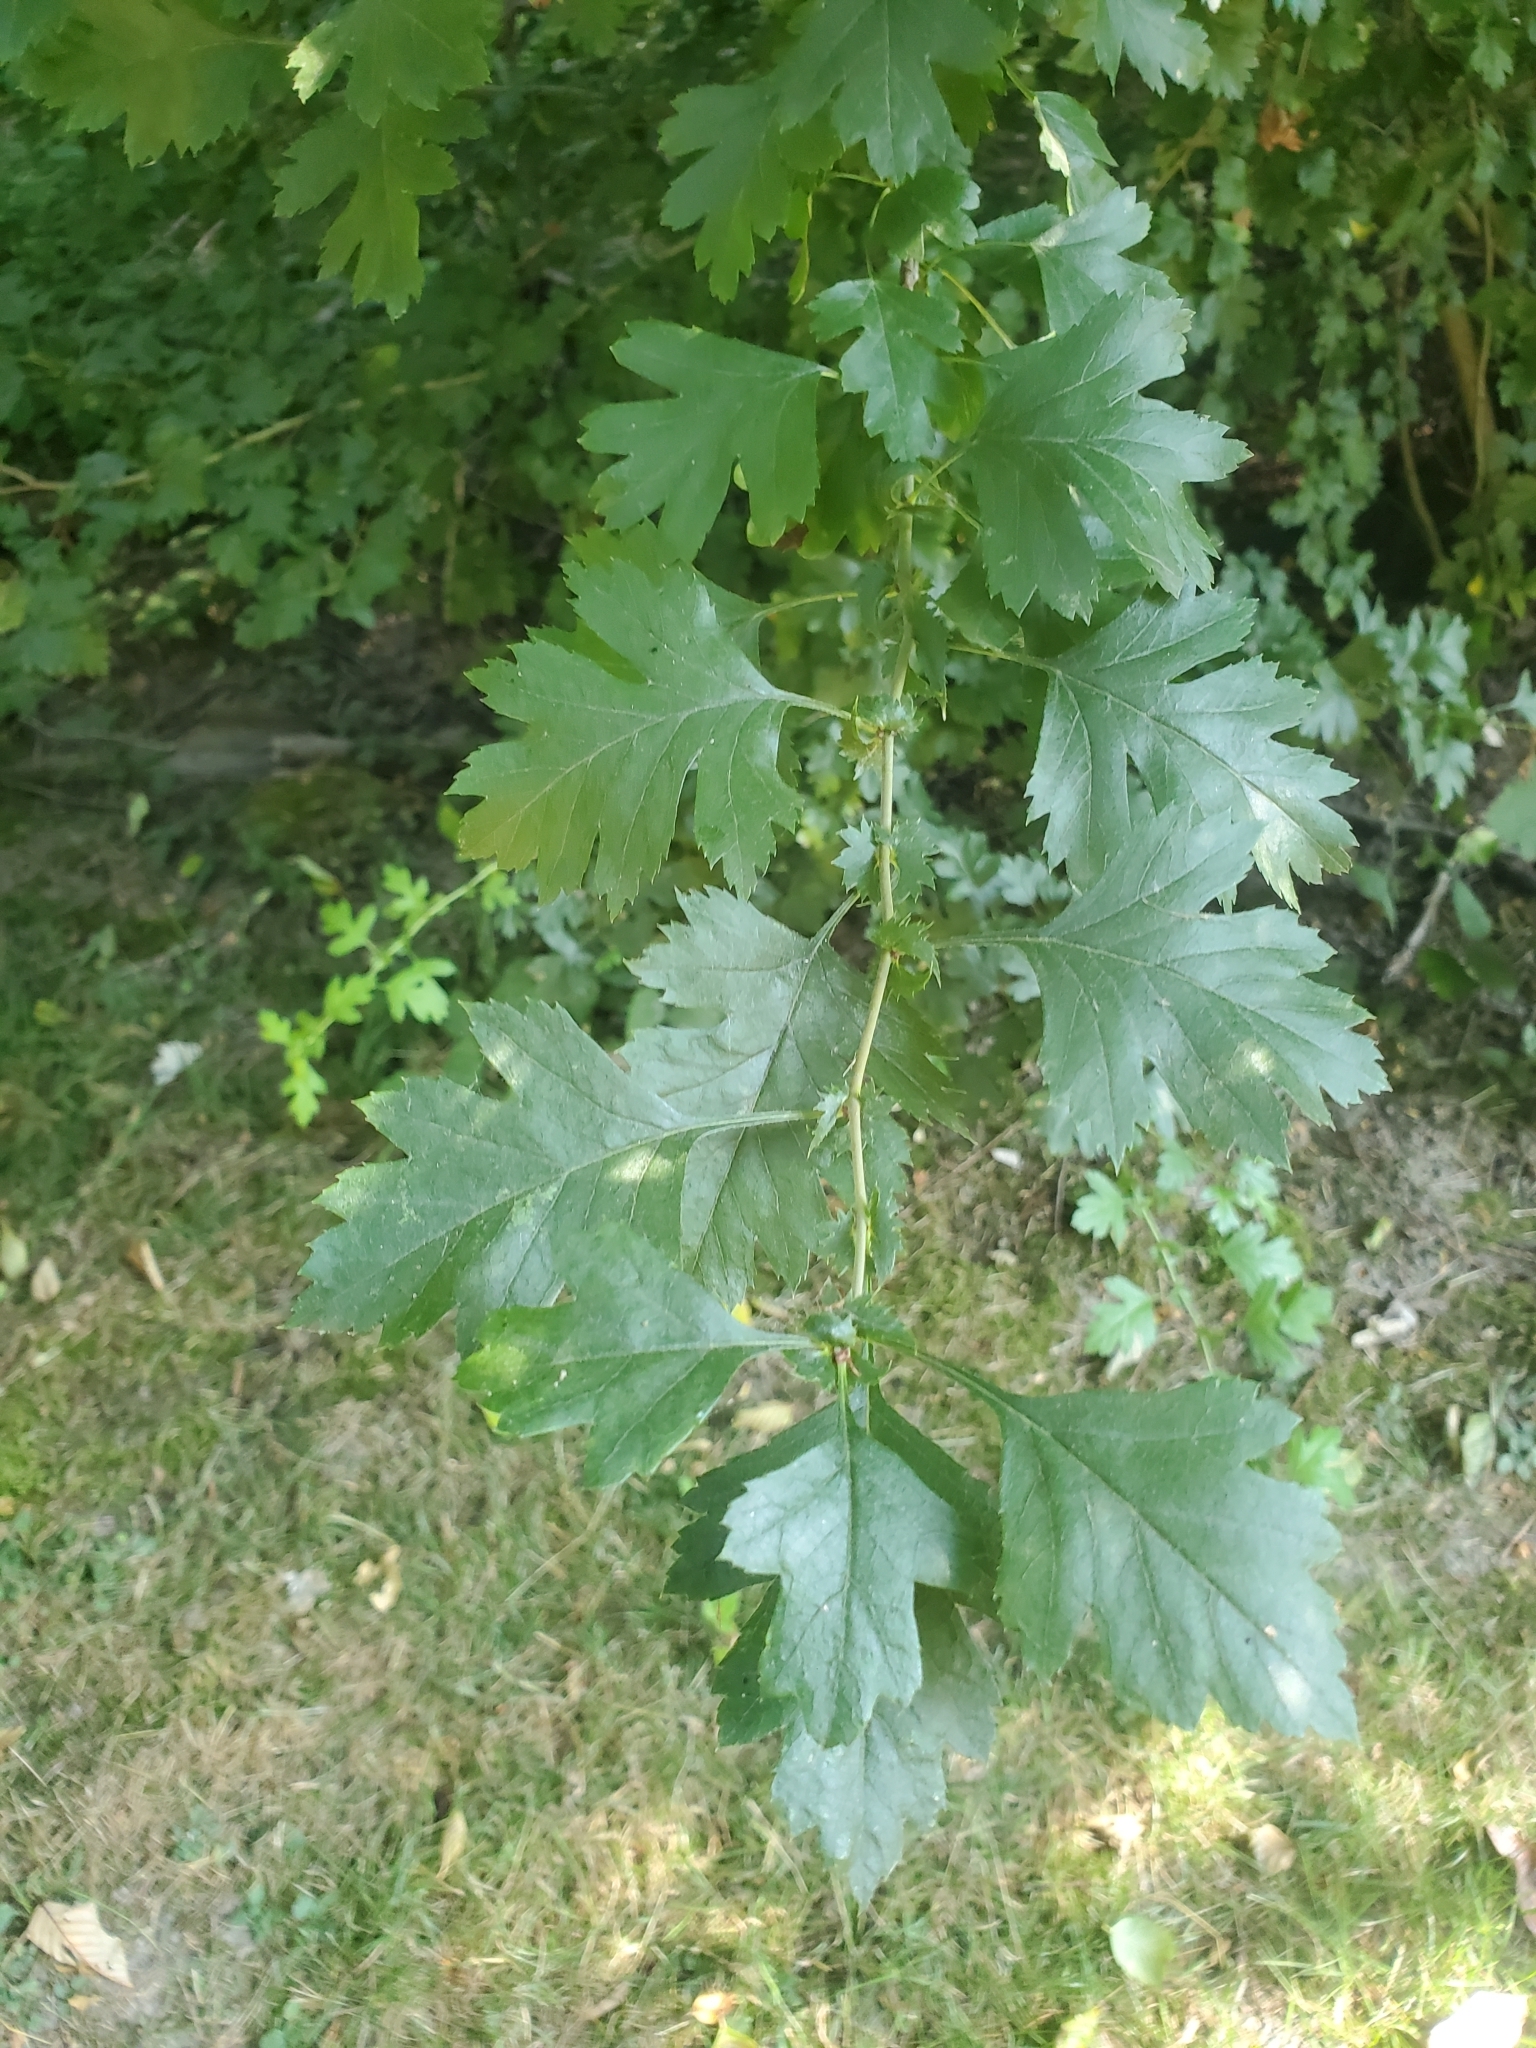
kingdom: Plantae
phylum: Tracheophyta
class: Magnoliopsida
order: Rosales
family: Rosaceae
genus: Crataegus
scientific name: Crataegus monogyna
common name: Hawthorn
